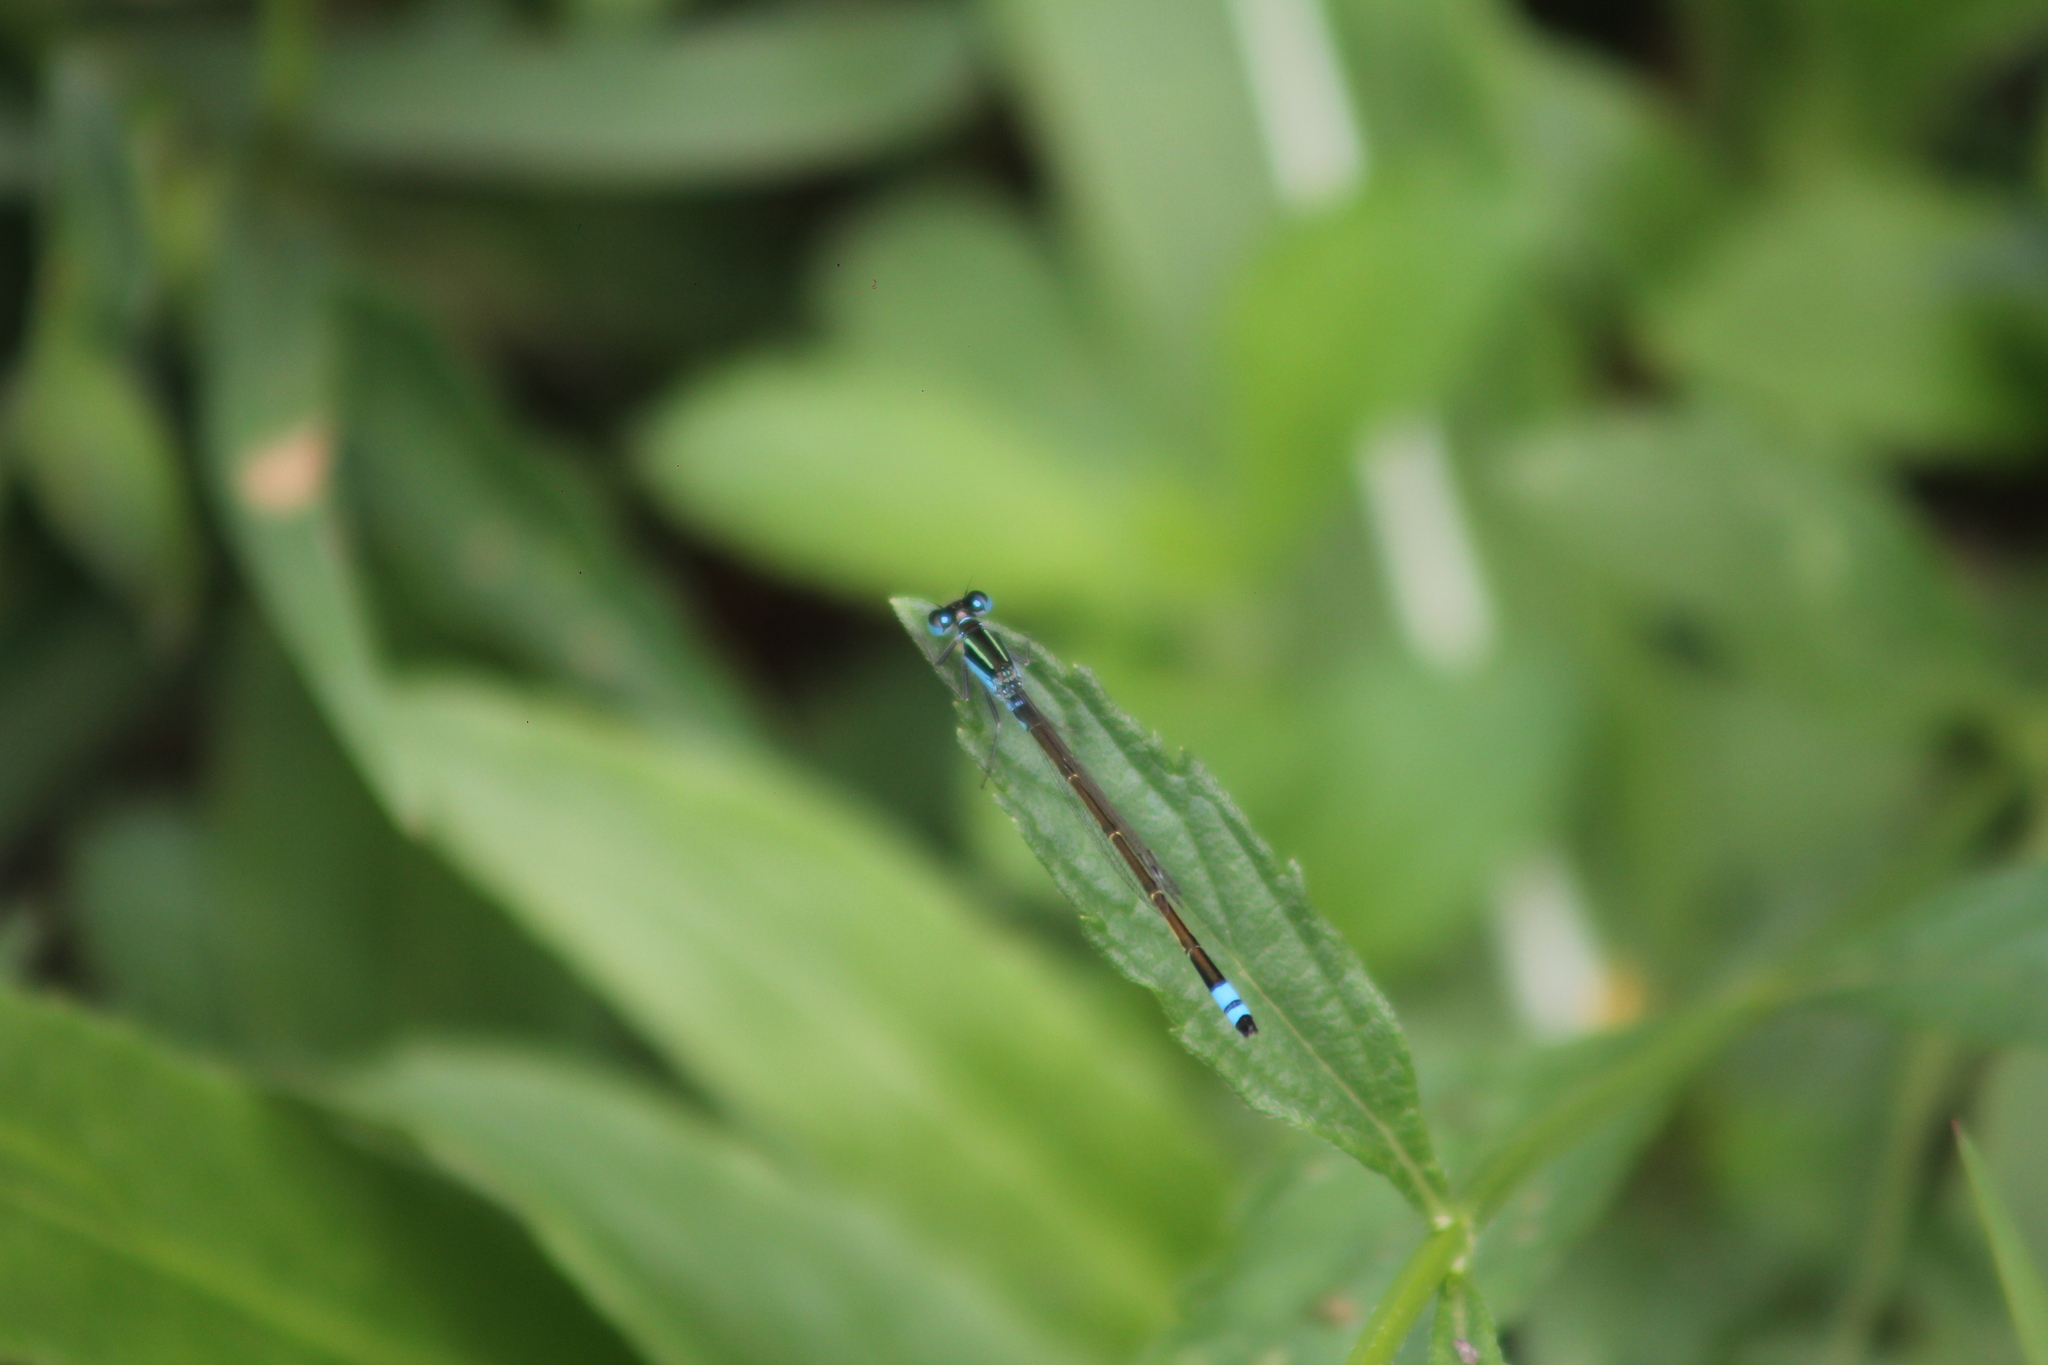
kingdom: Animalia
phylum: Arthropoda
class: Insecta
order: Odonata
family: Coenagrionidae
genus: Ischnura
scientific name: Ischnura fluviatilis
